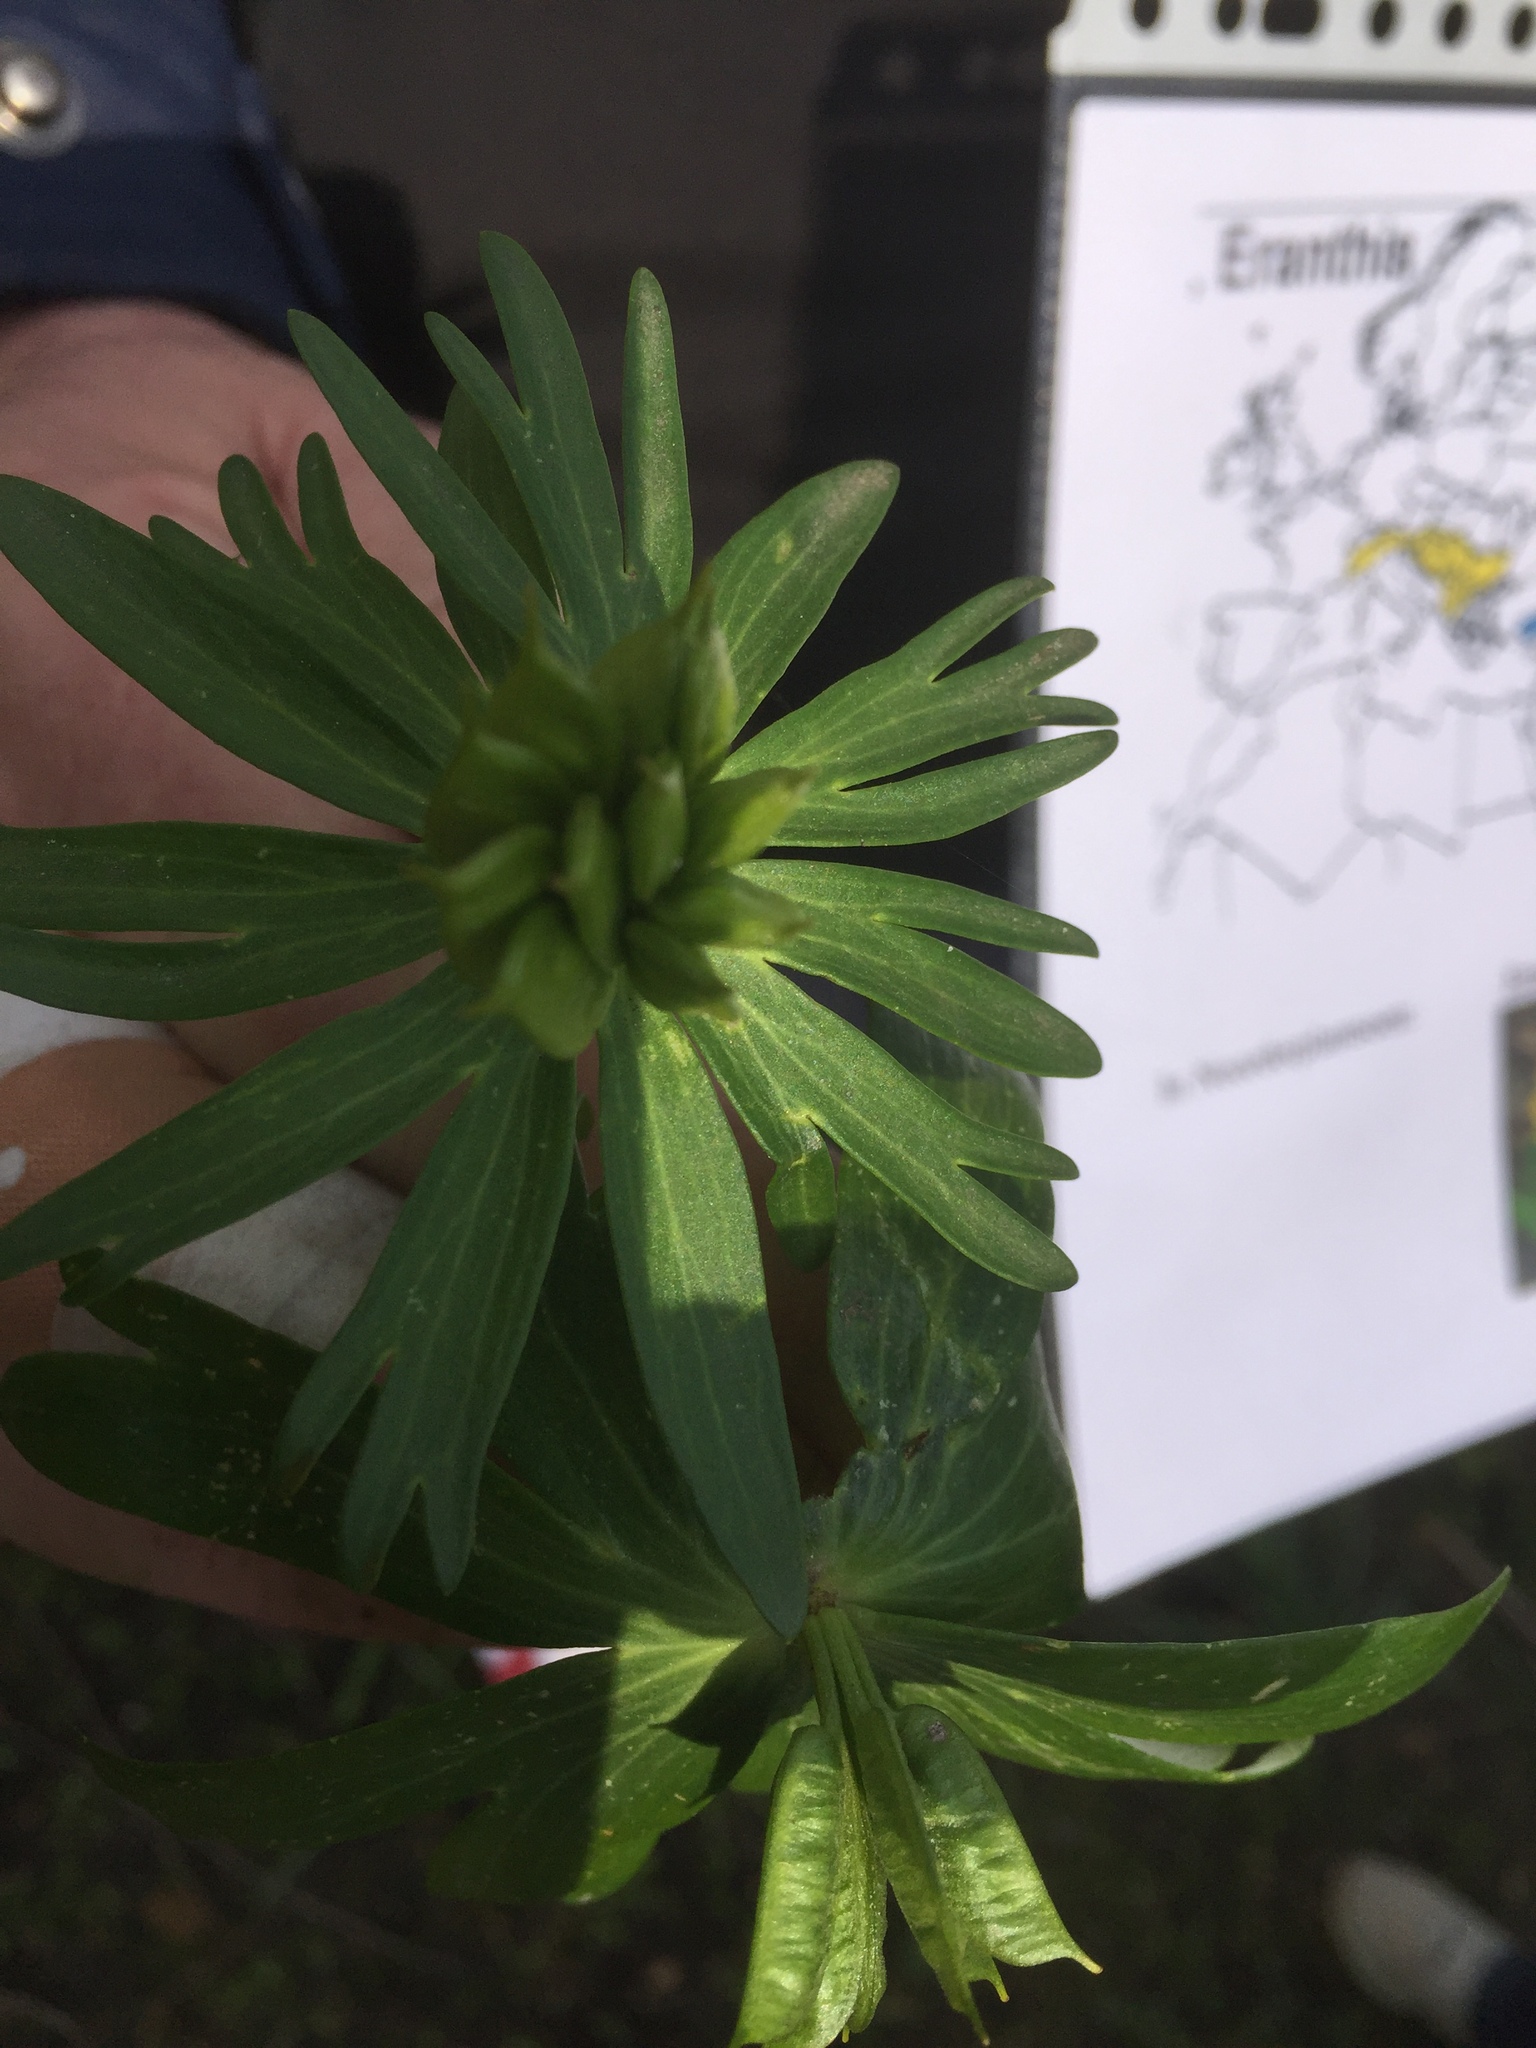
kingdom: Plantae
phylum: Tracheophyta
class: Magnoliopsida
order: Ranunculales
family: Ranunculaceae
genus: Eranthis
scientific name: Eranthis cilicica
